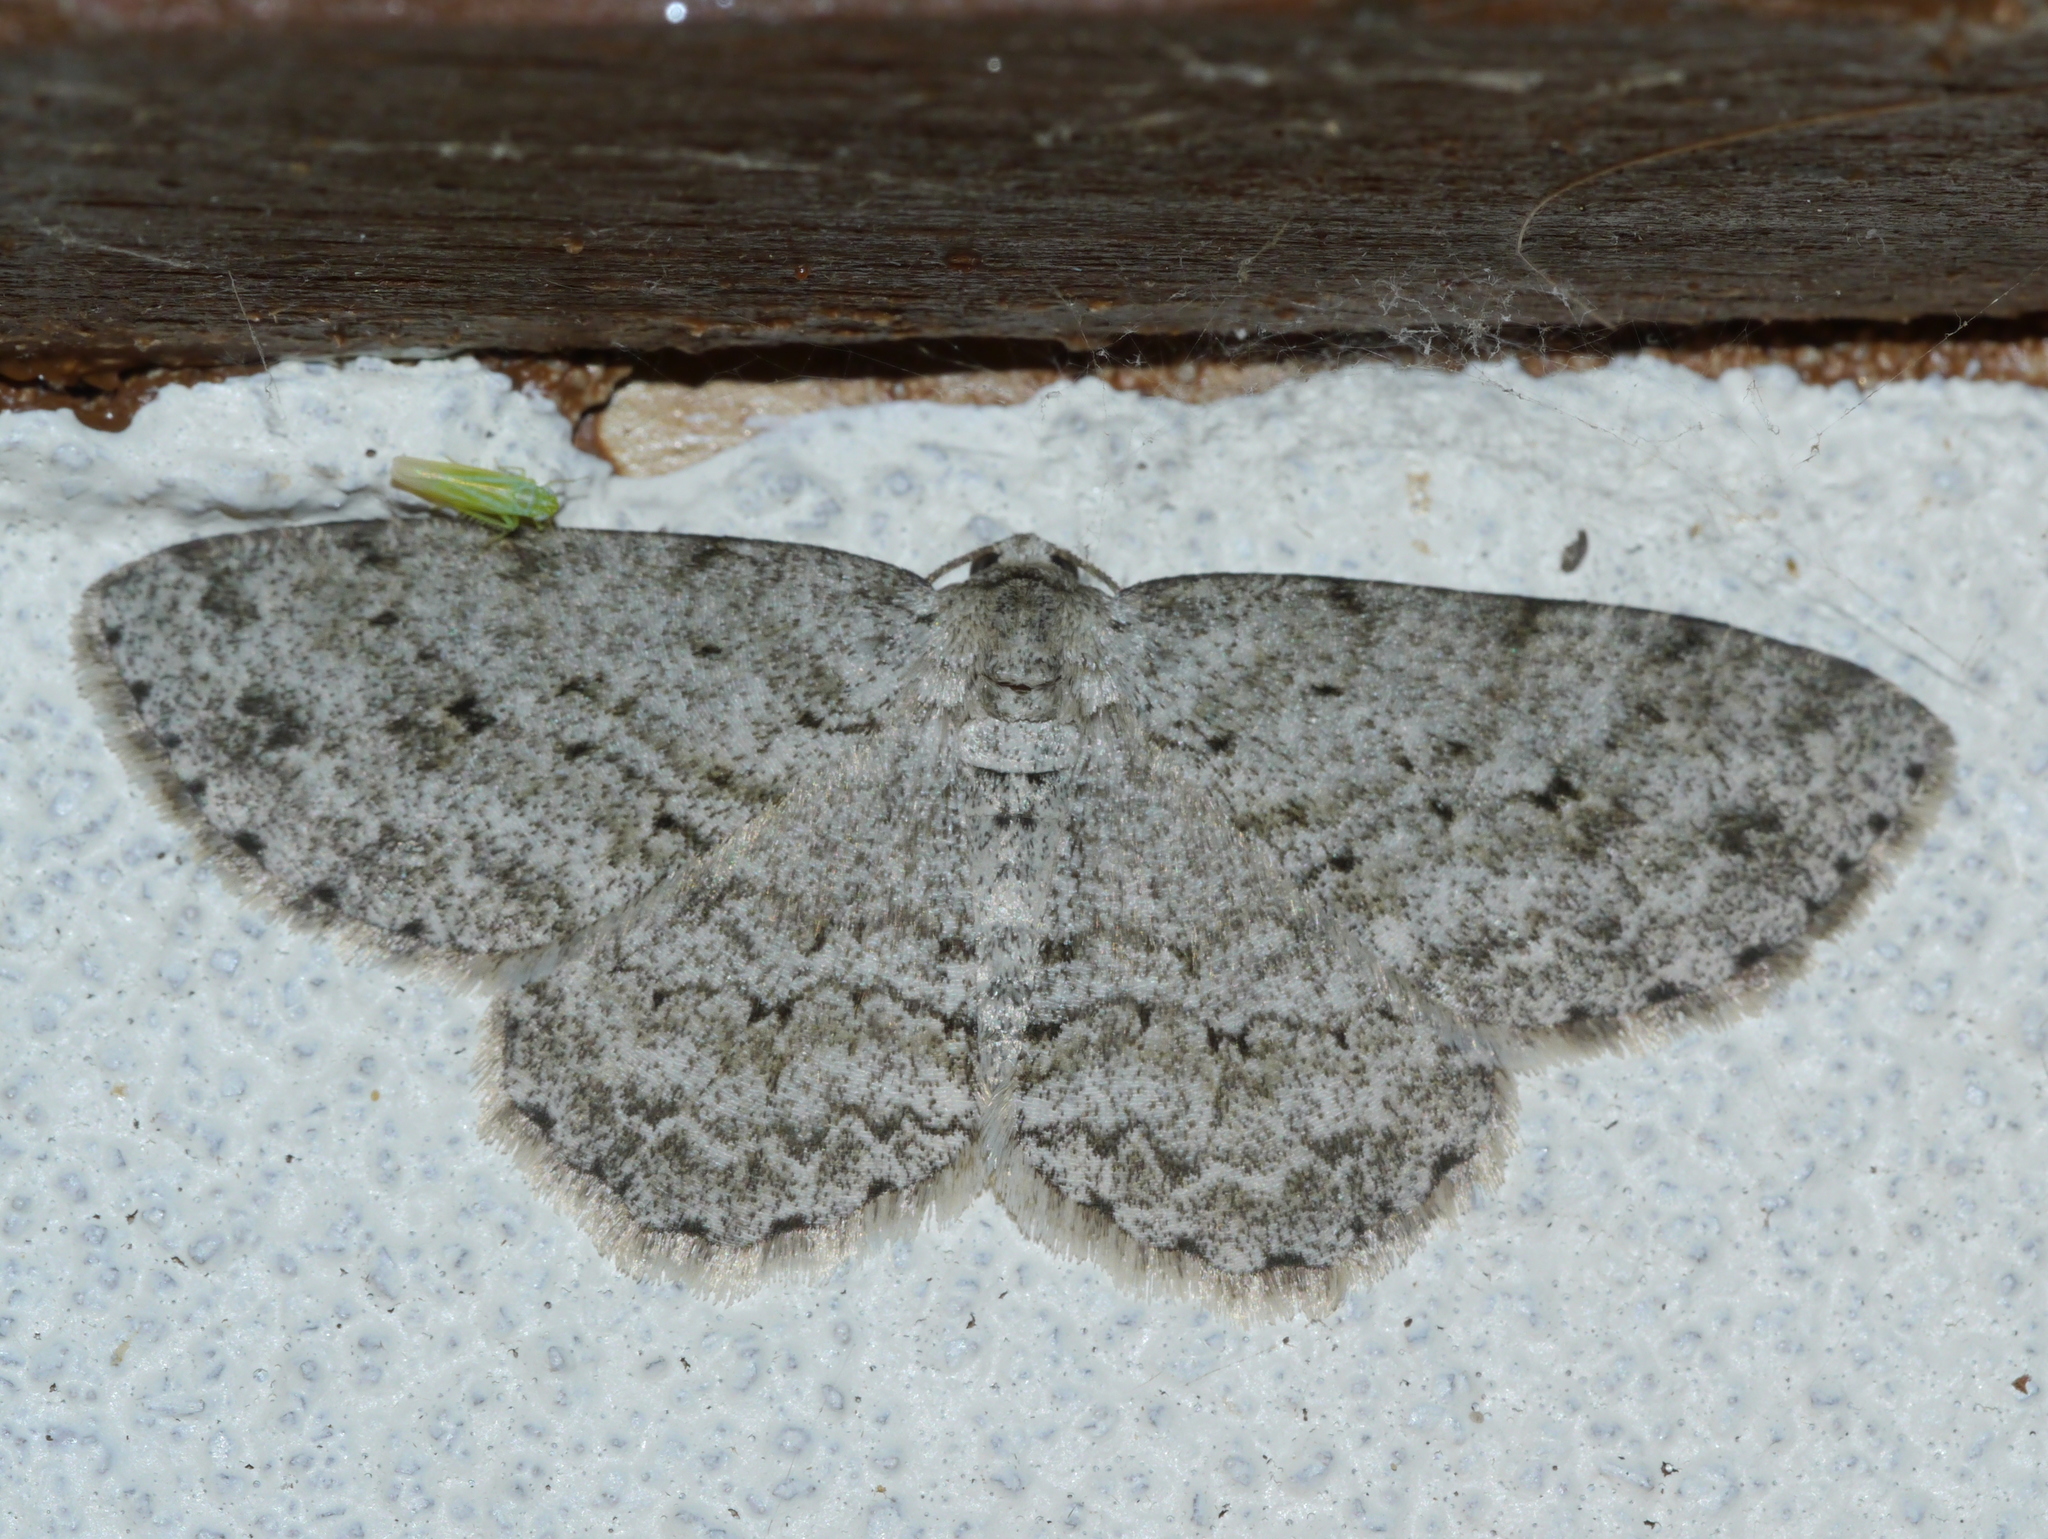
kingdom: Animalia
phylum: Arthropoda
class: Insecta
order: Lepidoptera
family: Geometridae
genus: Ectropis
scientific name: Ectropis crepuscularia
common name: Engrailed
